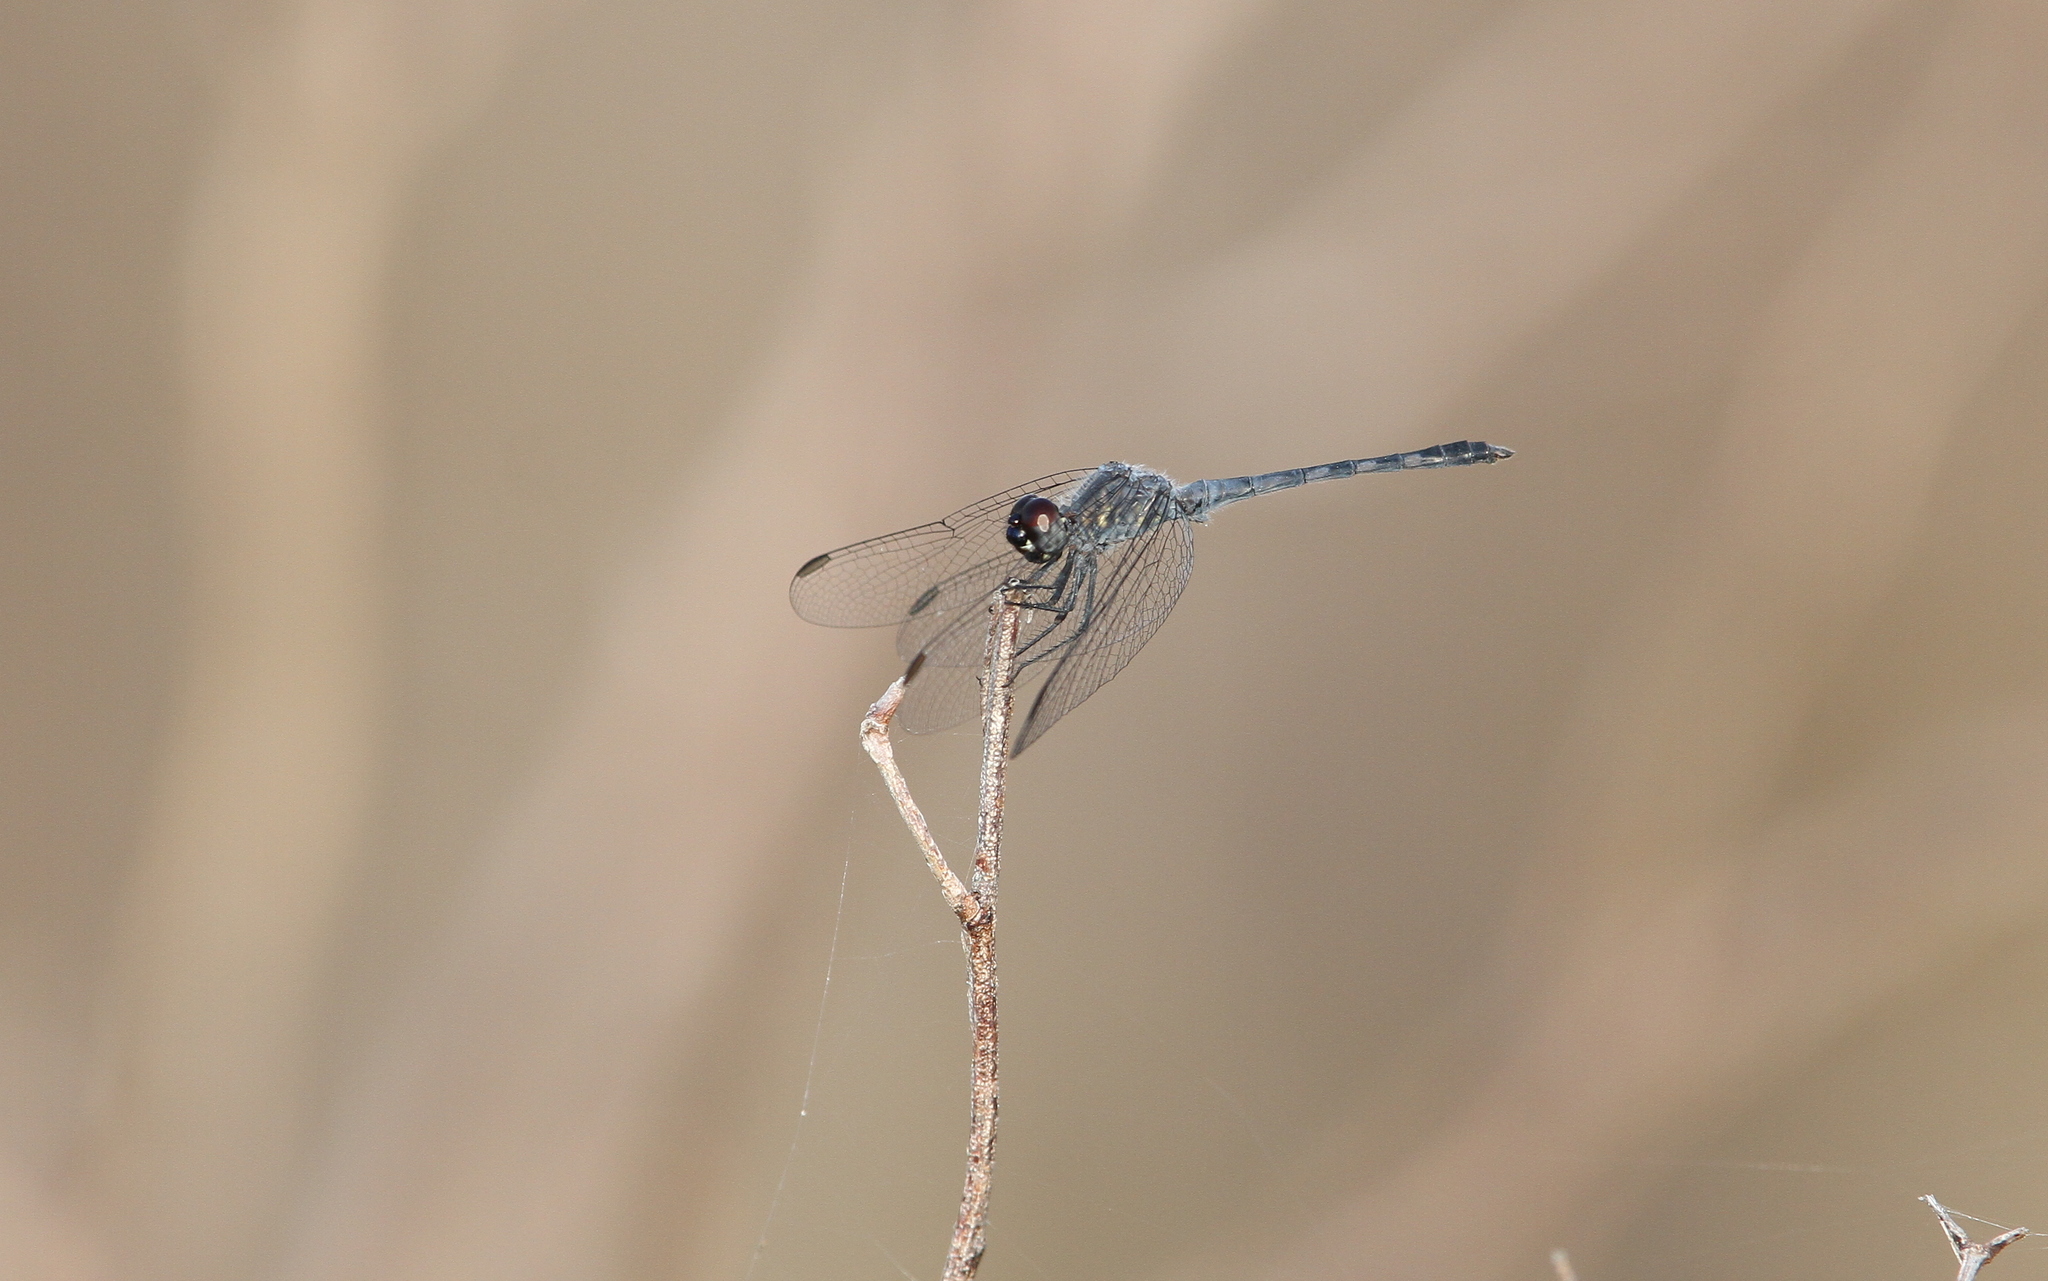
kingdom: Animalia
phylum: Arthropoda
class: Insecta
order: Odonata
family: Libellulidae
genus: Erythrodiplax
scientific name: Erythrodiplax berenice
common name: Seaside dragonlet
